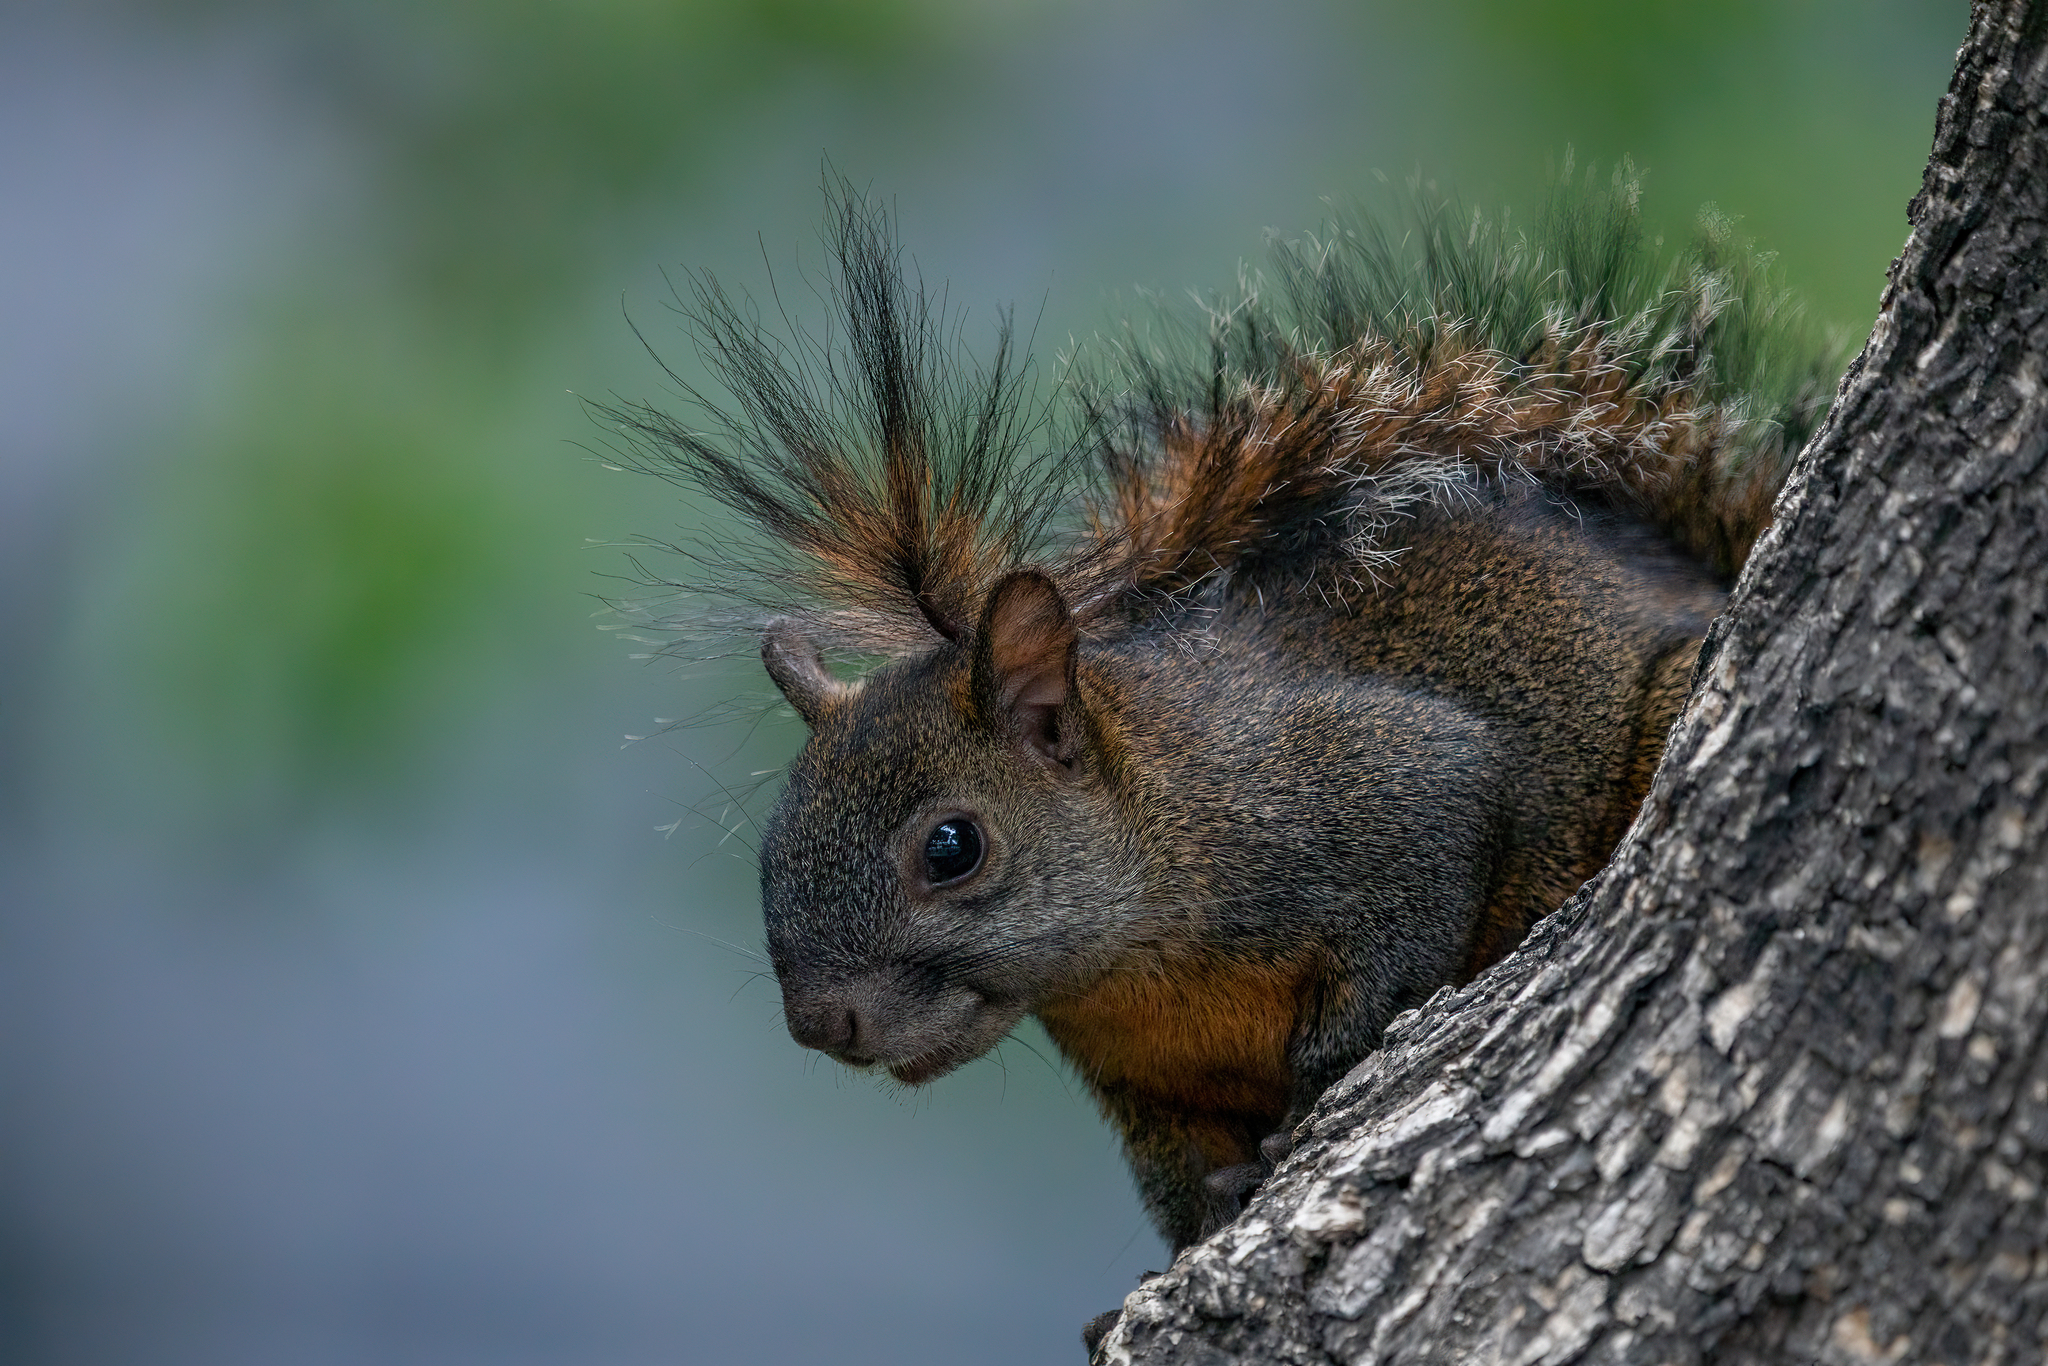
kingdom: Animalia
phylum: Chordata
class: Mammalia
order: Rodentia
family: Sciuridae
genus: Sciurus
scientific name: Sciurus aureogaster
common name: Red-bellied squirrel
